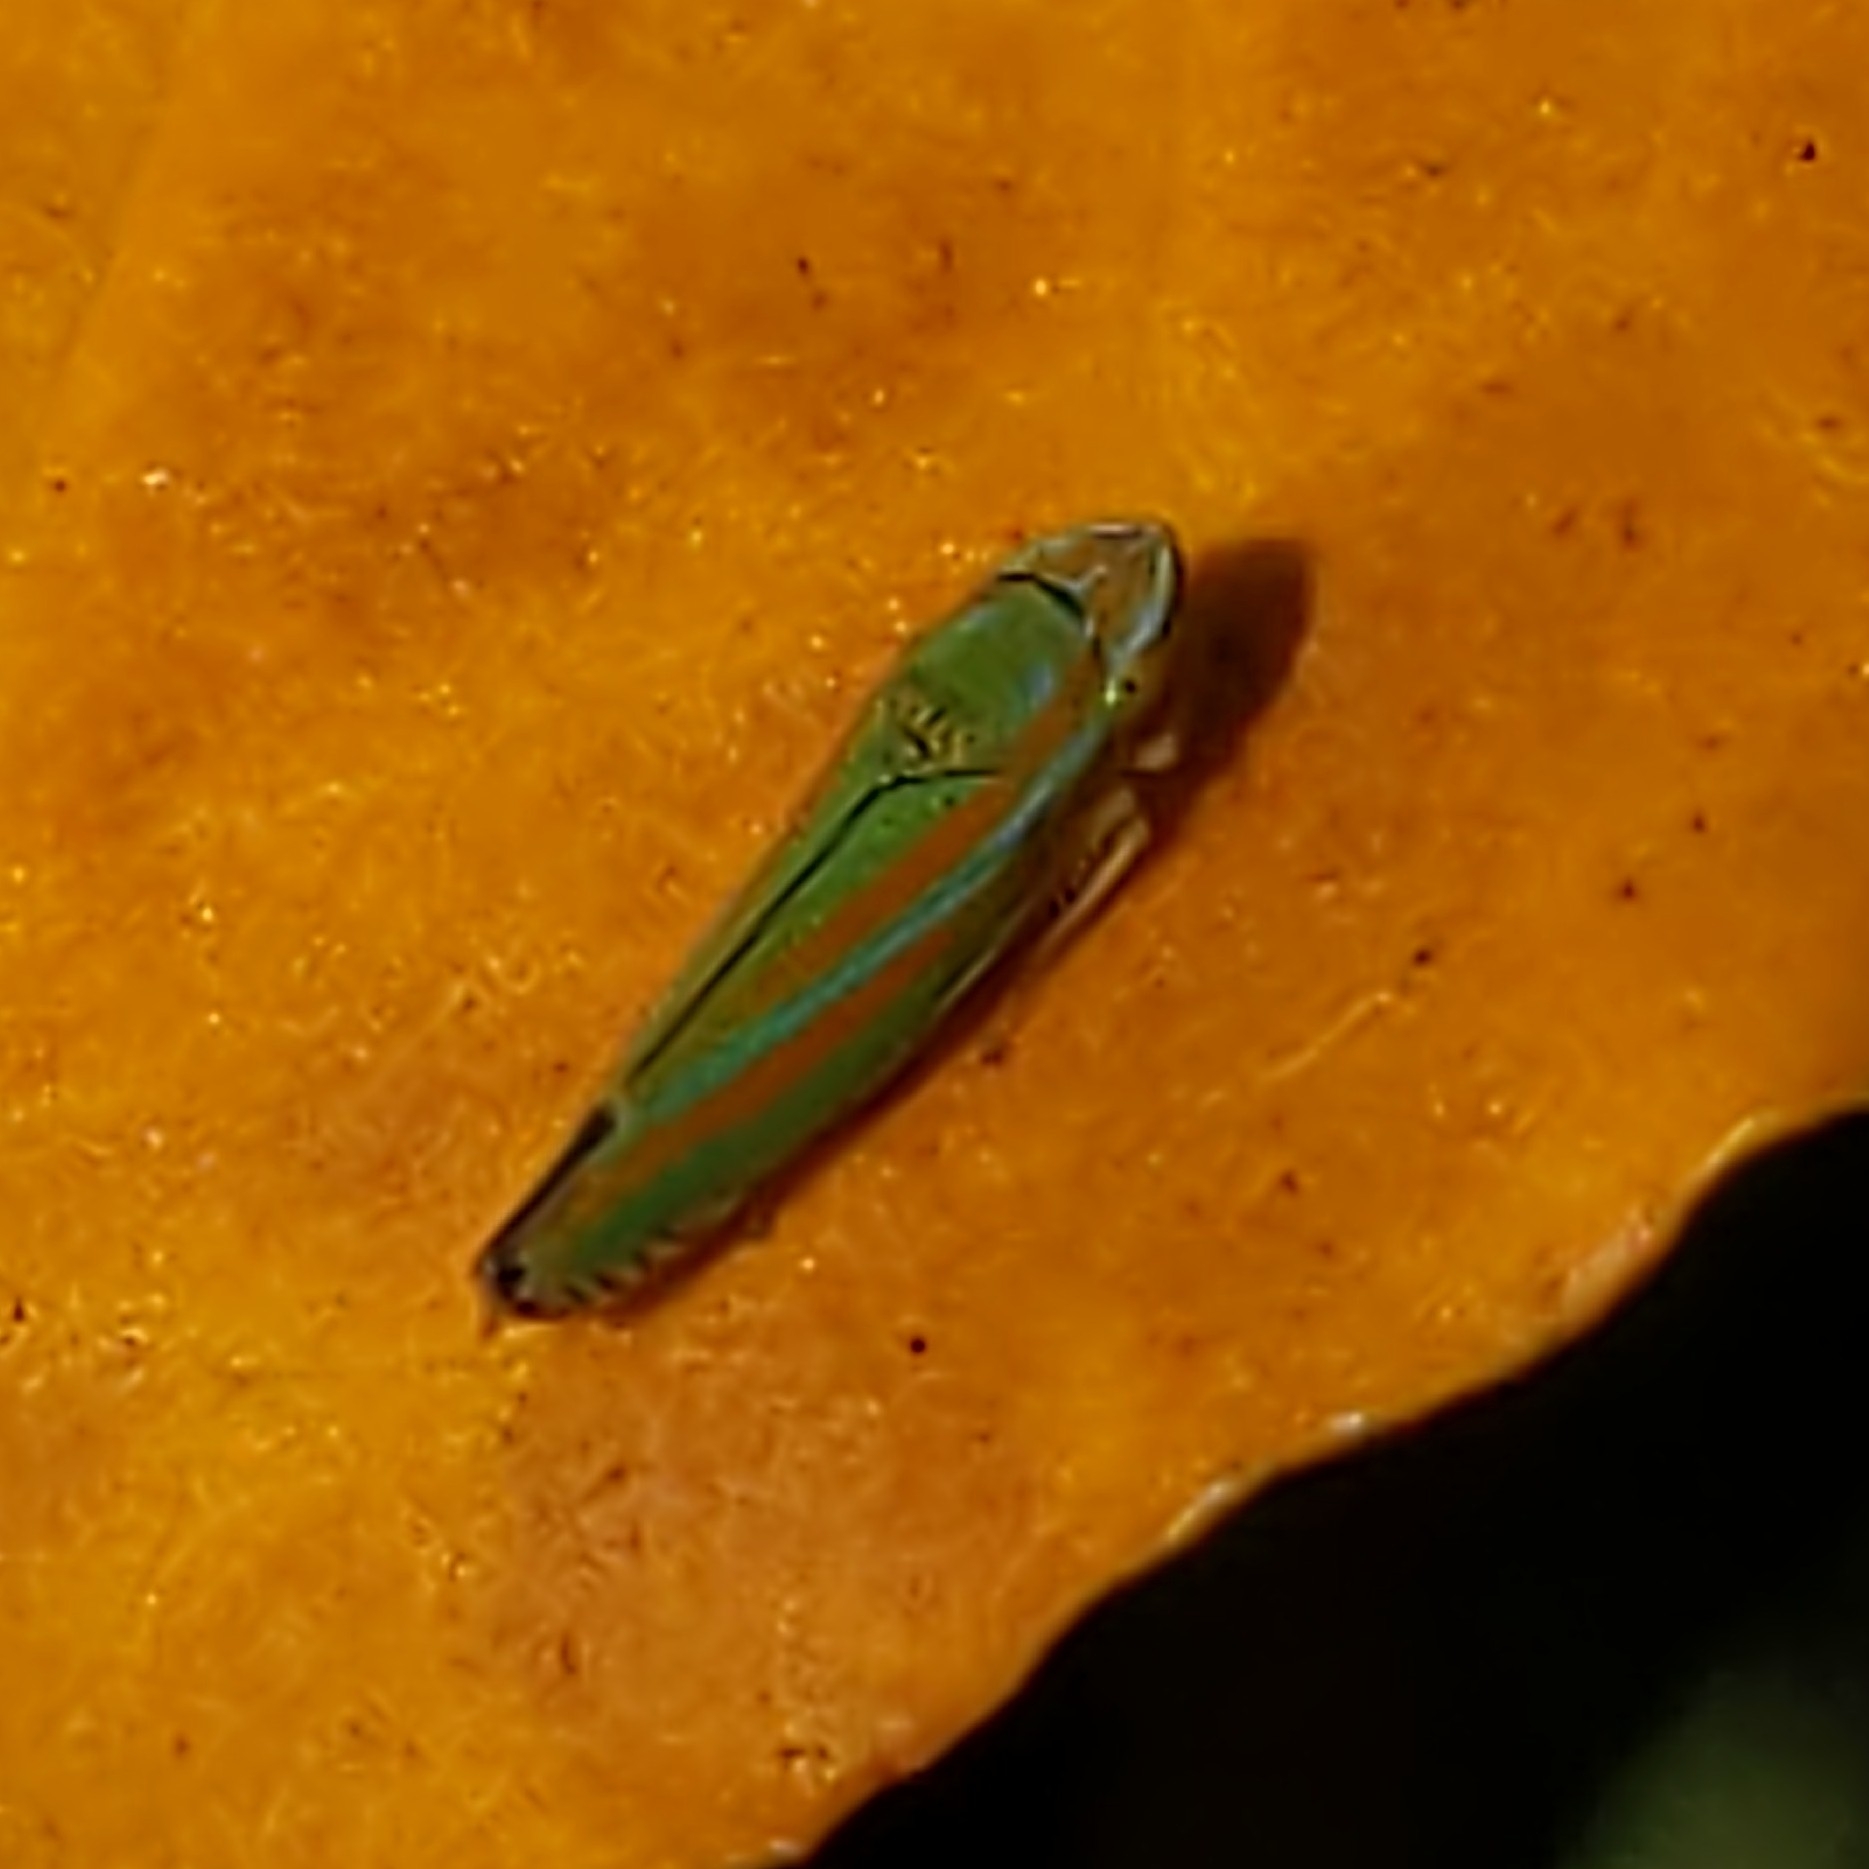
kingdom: Animalia
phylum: Arthropoda
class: Insecta
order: Hemiptera
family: Cicadellidae
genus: Graphocephala
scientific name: Graphocephala versuta
